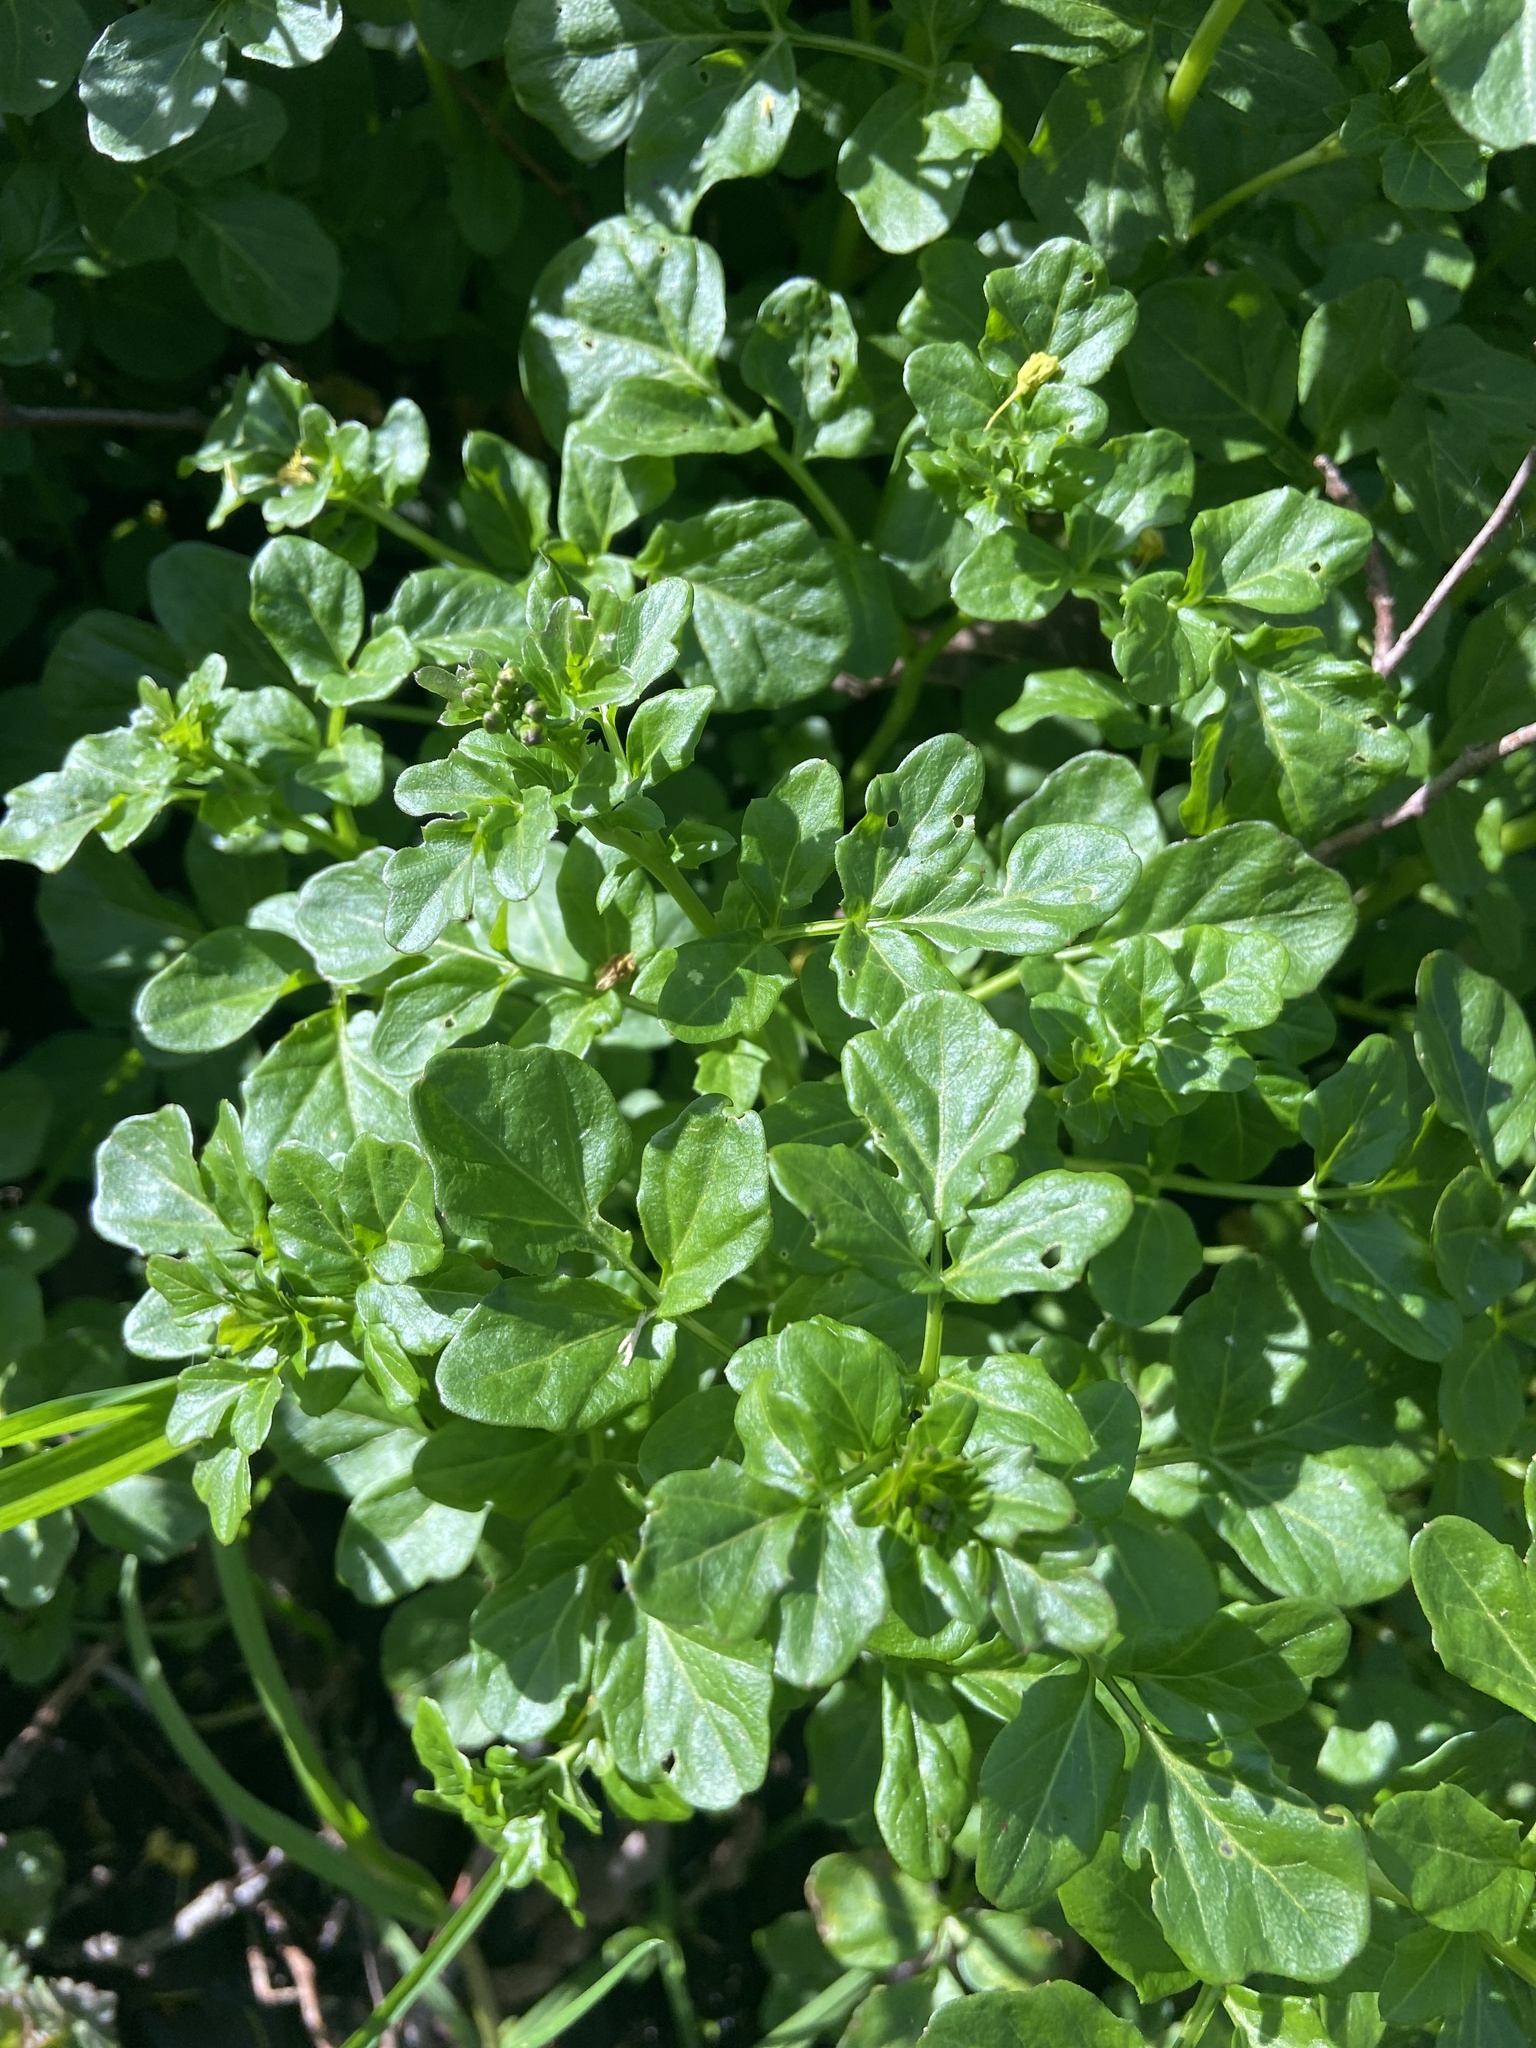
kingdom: Plantae
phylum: Tracheophyta
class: Magnoliopsida
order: Brassicales
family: Brassicaceae
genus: Cardamine
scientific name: Cardamine amara
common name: Large bitter-cress
